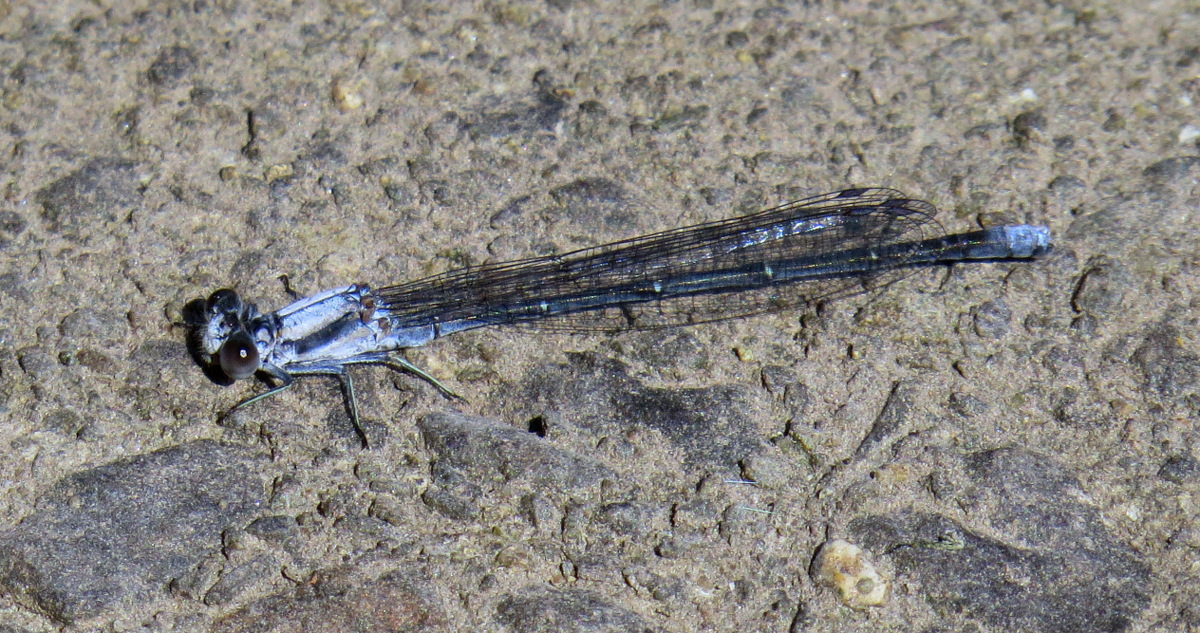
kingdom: Animalia
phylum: Arthropoda
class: Insecta
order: Odonata
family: Coenagrionidae
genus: Argia
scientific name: Argia moesta
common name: Powdered dancer
